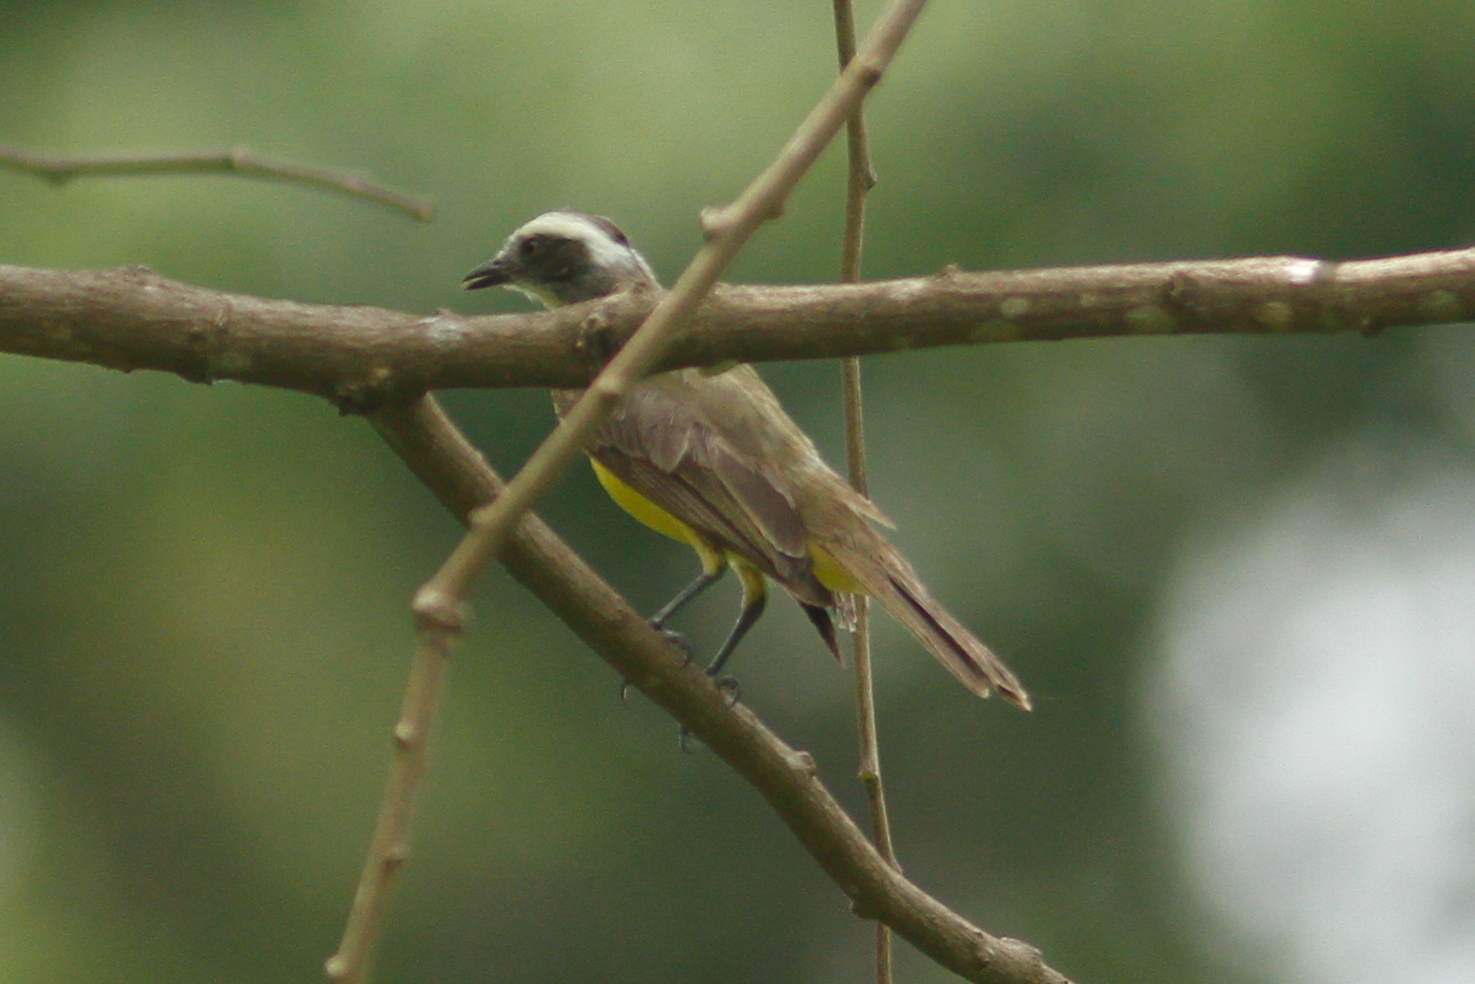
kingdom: Animalia
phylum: Chordata
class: Aves
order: Passeriformes
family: Tyrannidae
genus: Myiozetetes
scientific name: Myiozetetes similis
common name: Social flycatcher
